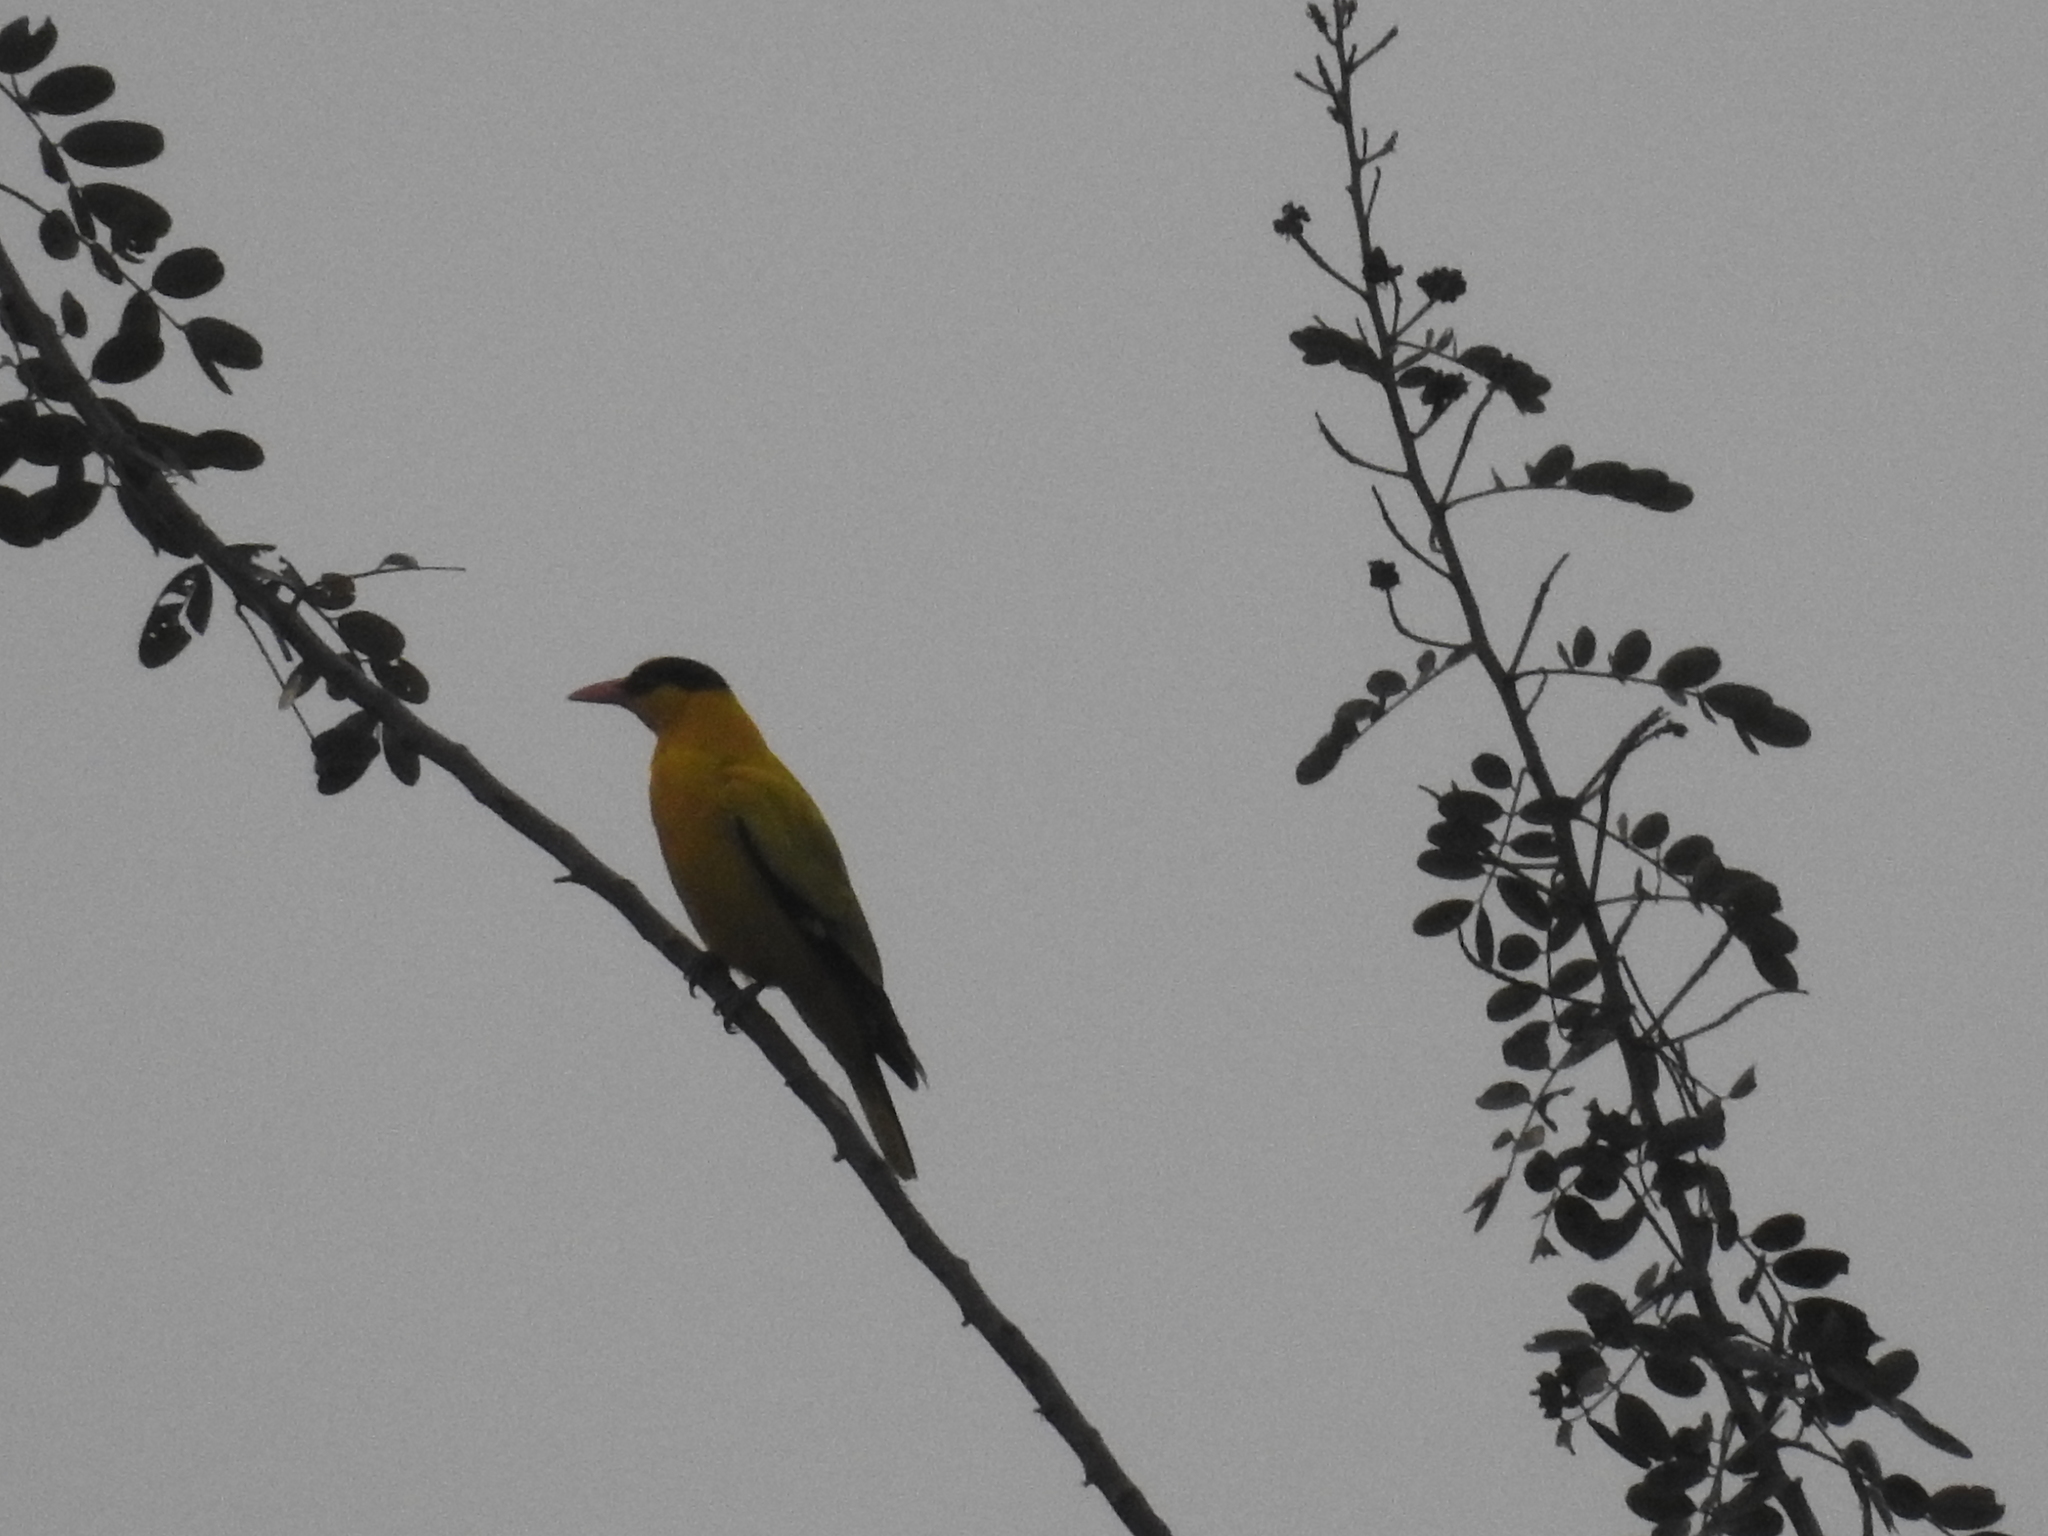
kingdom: Animalia
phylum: Chordata
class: Aves
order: Passeriformes
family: Oriolidae
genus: Oriolus
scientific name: Oriolus chinensis
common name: Black-naped oriole
